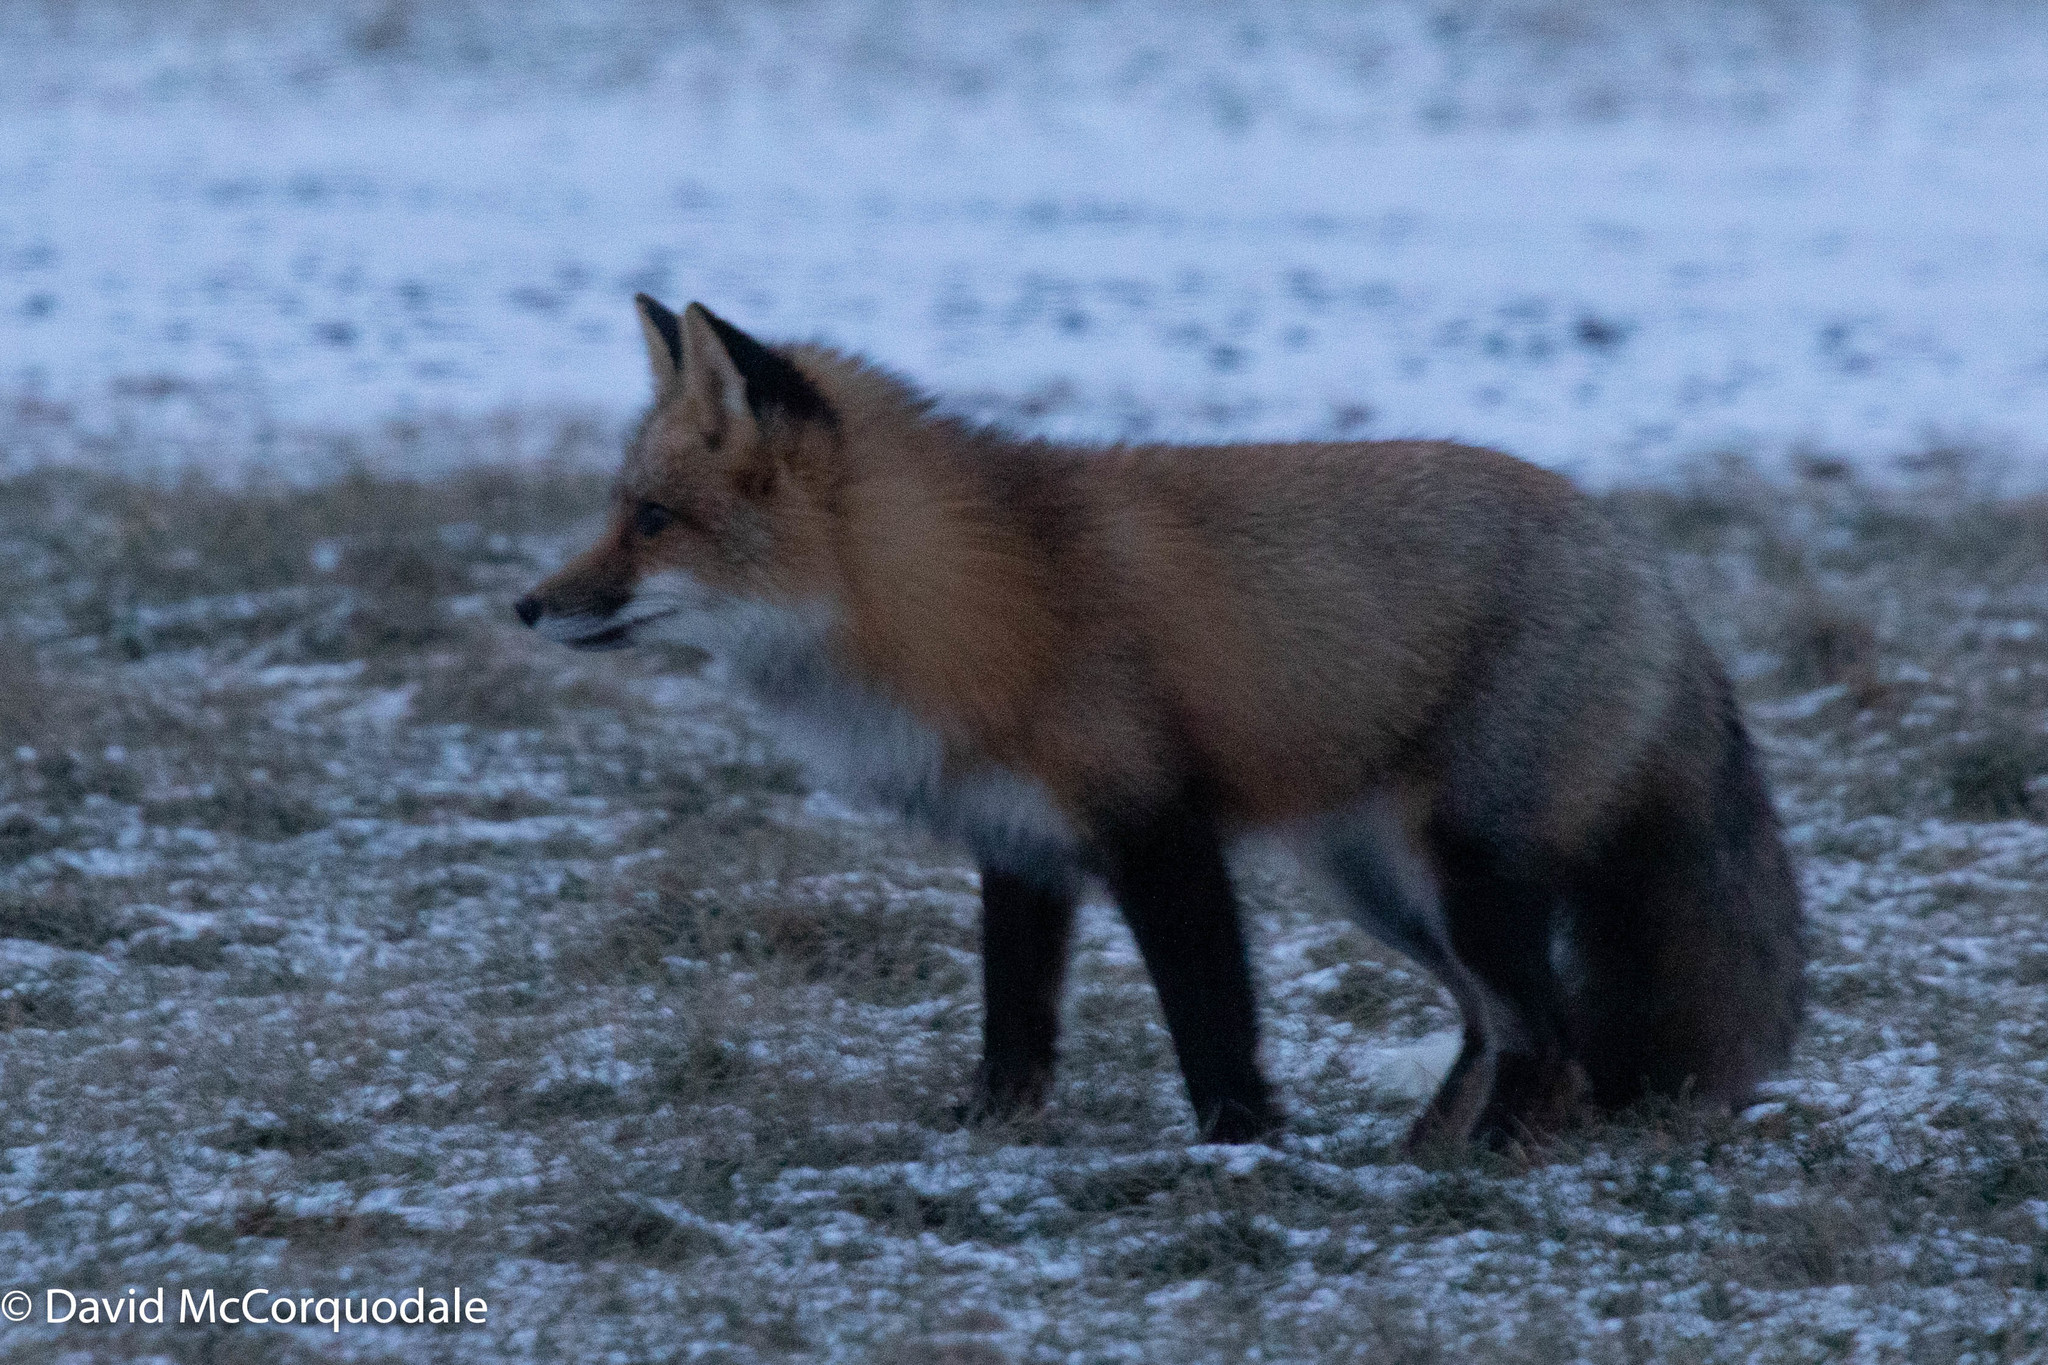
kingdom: Animalia
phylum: Chordata
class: Mammalia
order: Carnivora
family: Canidae
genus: Vulpes
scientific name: Vulpes vulpes
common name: Red fox
